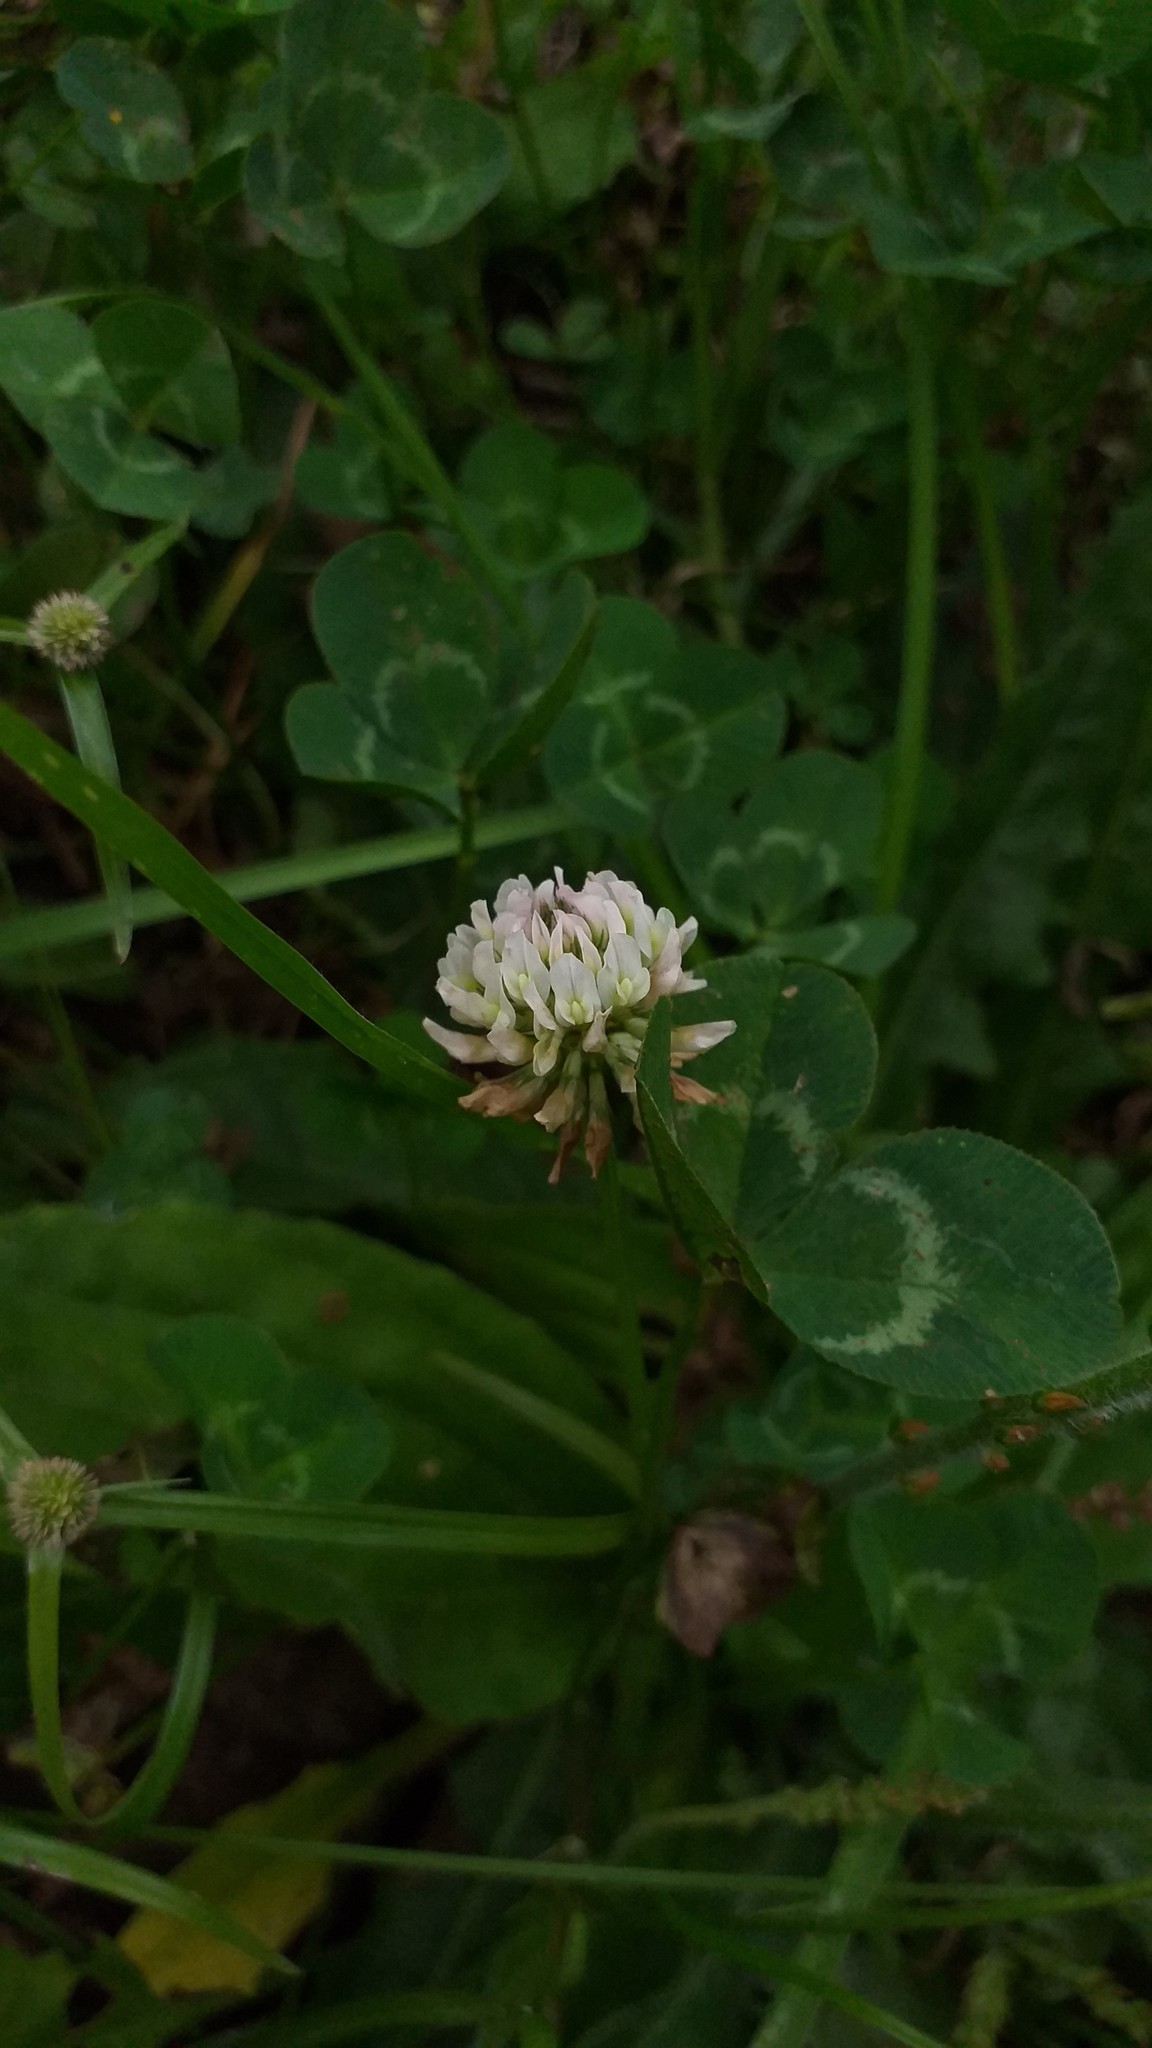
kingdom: Plantae
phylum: Tracheophyta
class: Magnoliopsida
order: Fabales
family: Fabaceae
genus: Trifolium
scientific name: Trifolium repens
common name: White clover
